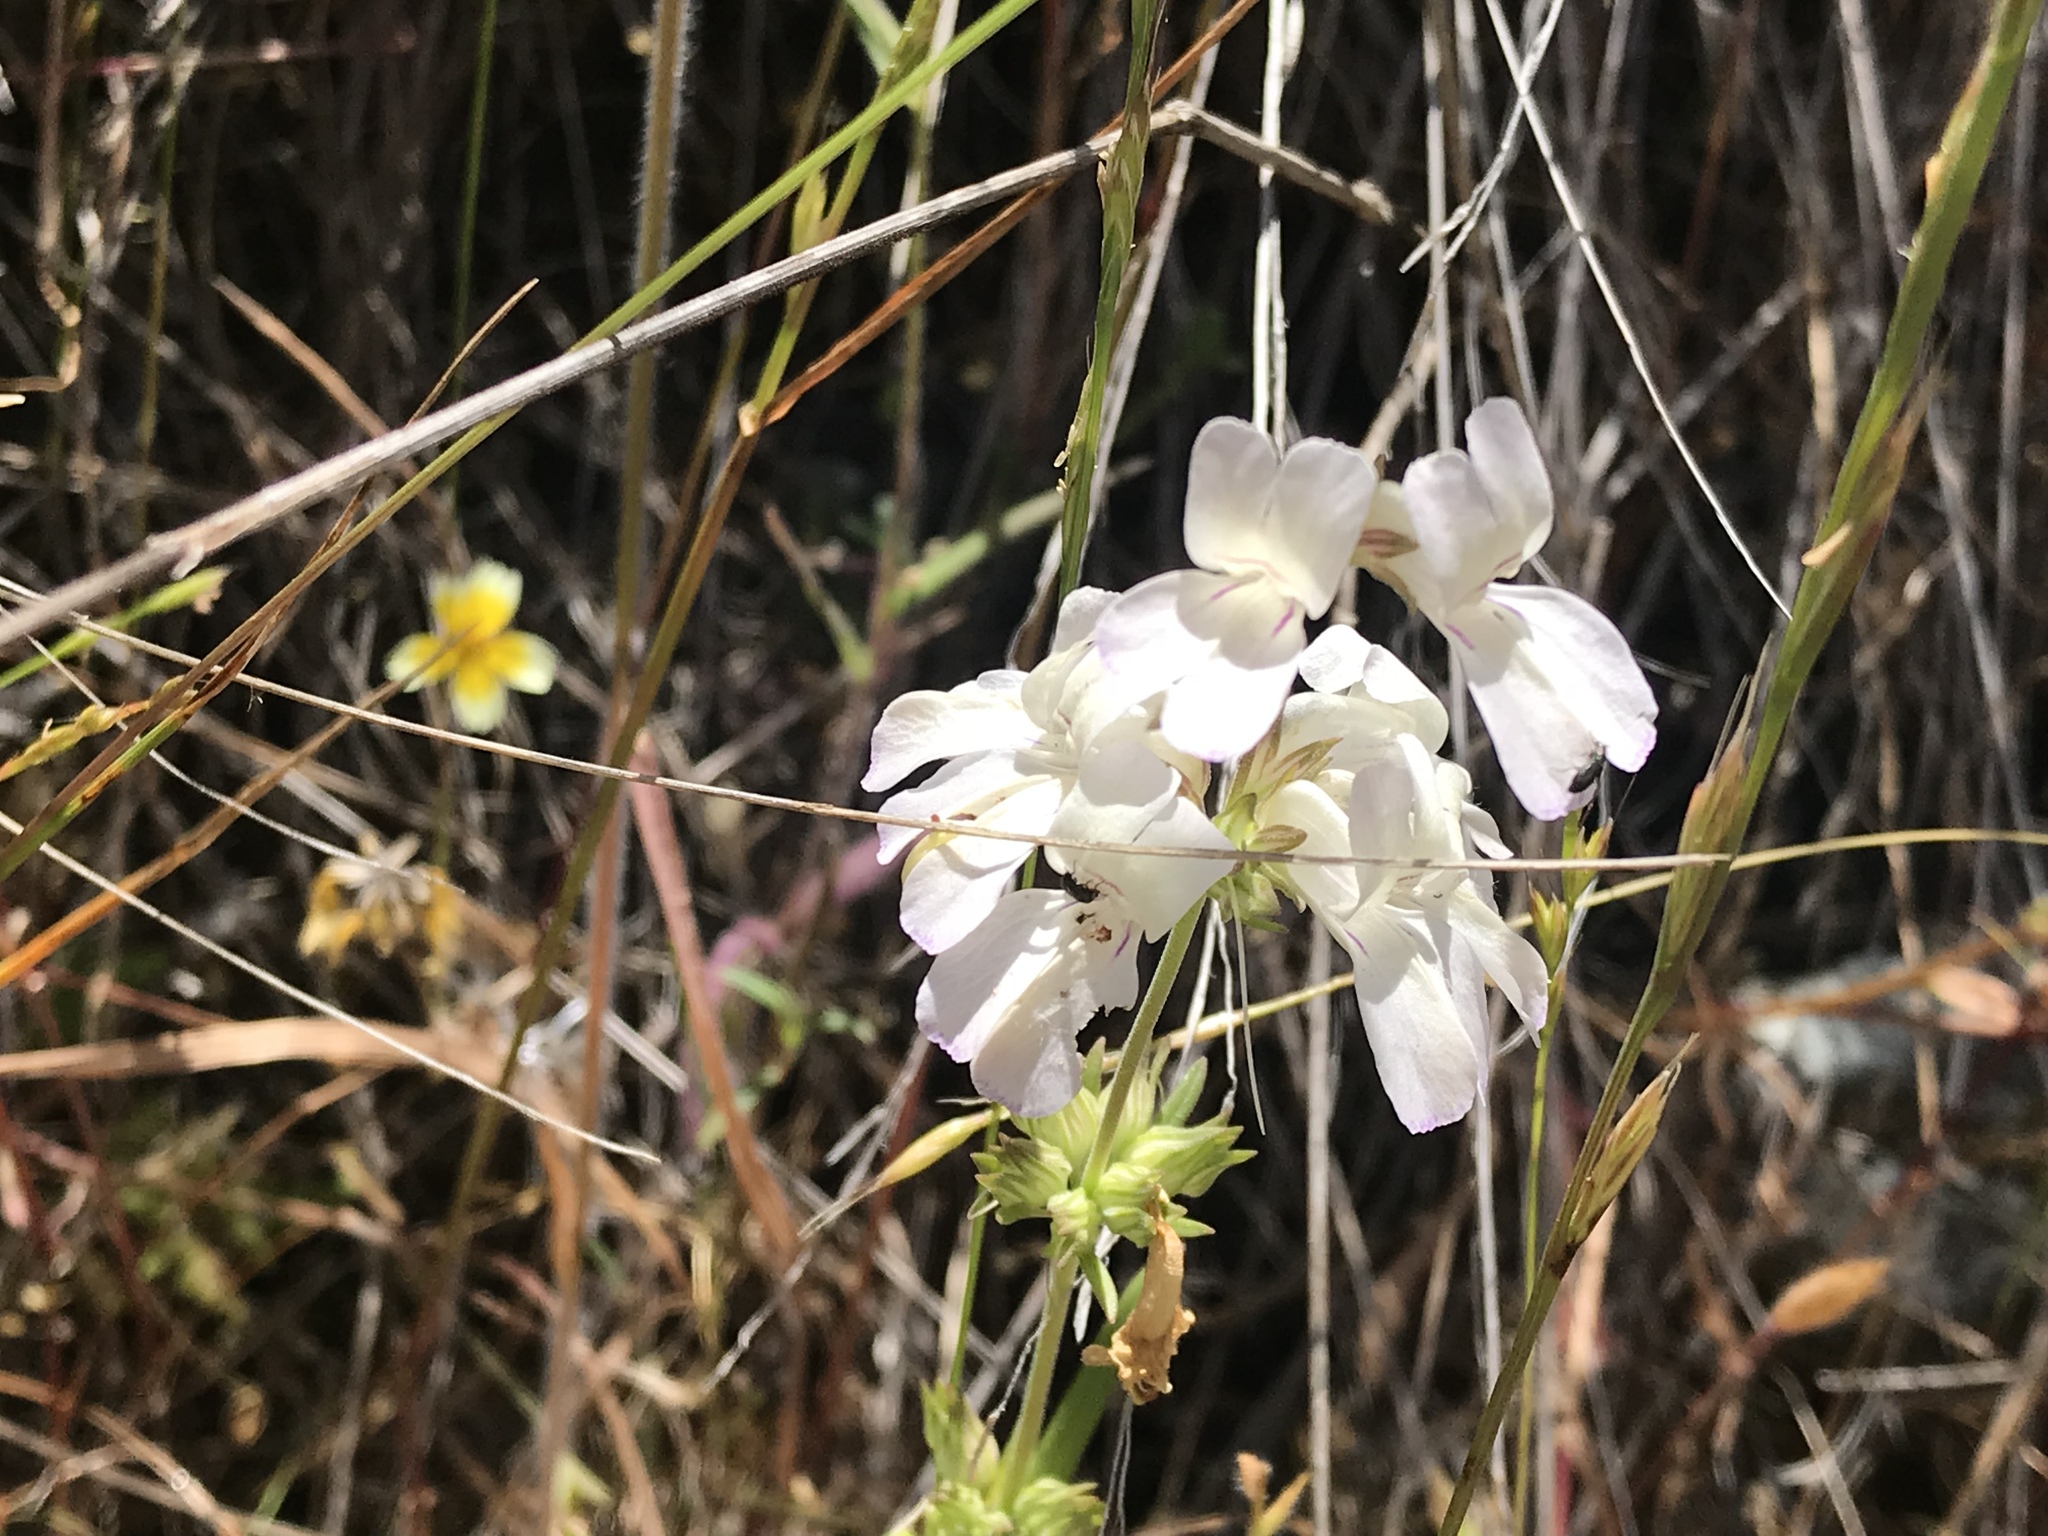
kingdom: Plantae
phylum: Tracheophyta
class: Magnoliopsida
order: Lamiales
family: Plantaginaceae
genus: Collinsia
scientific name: Collinsia heterophylla
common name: Chinese-houses
